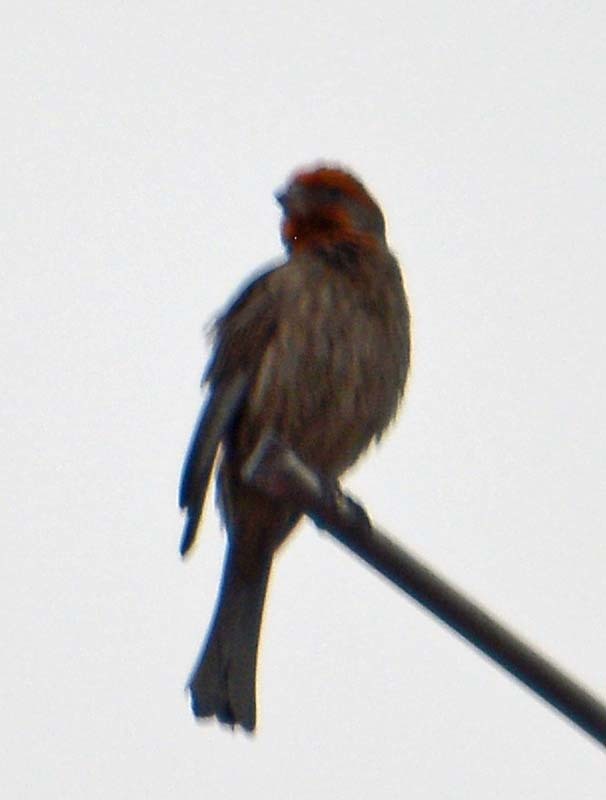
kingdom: Animalia
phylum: Chordata
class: Aves
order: Passeriformes
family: Fringillidae
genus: Haemorhous
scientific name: Haemorhous mexicanus
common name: House finch
